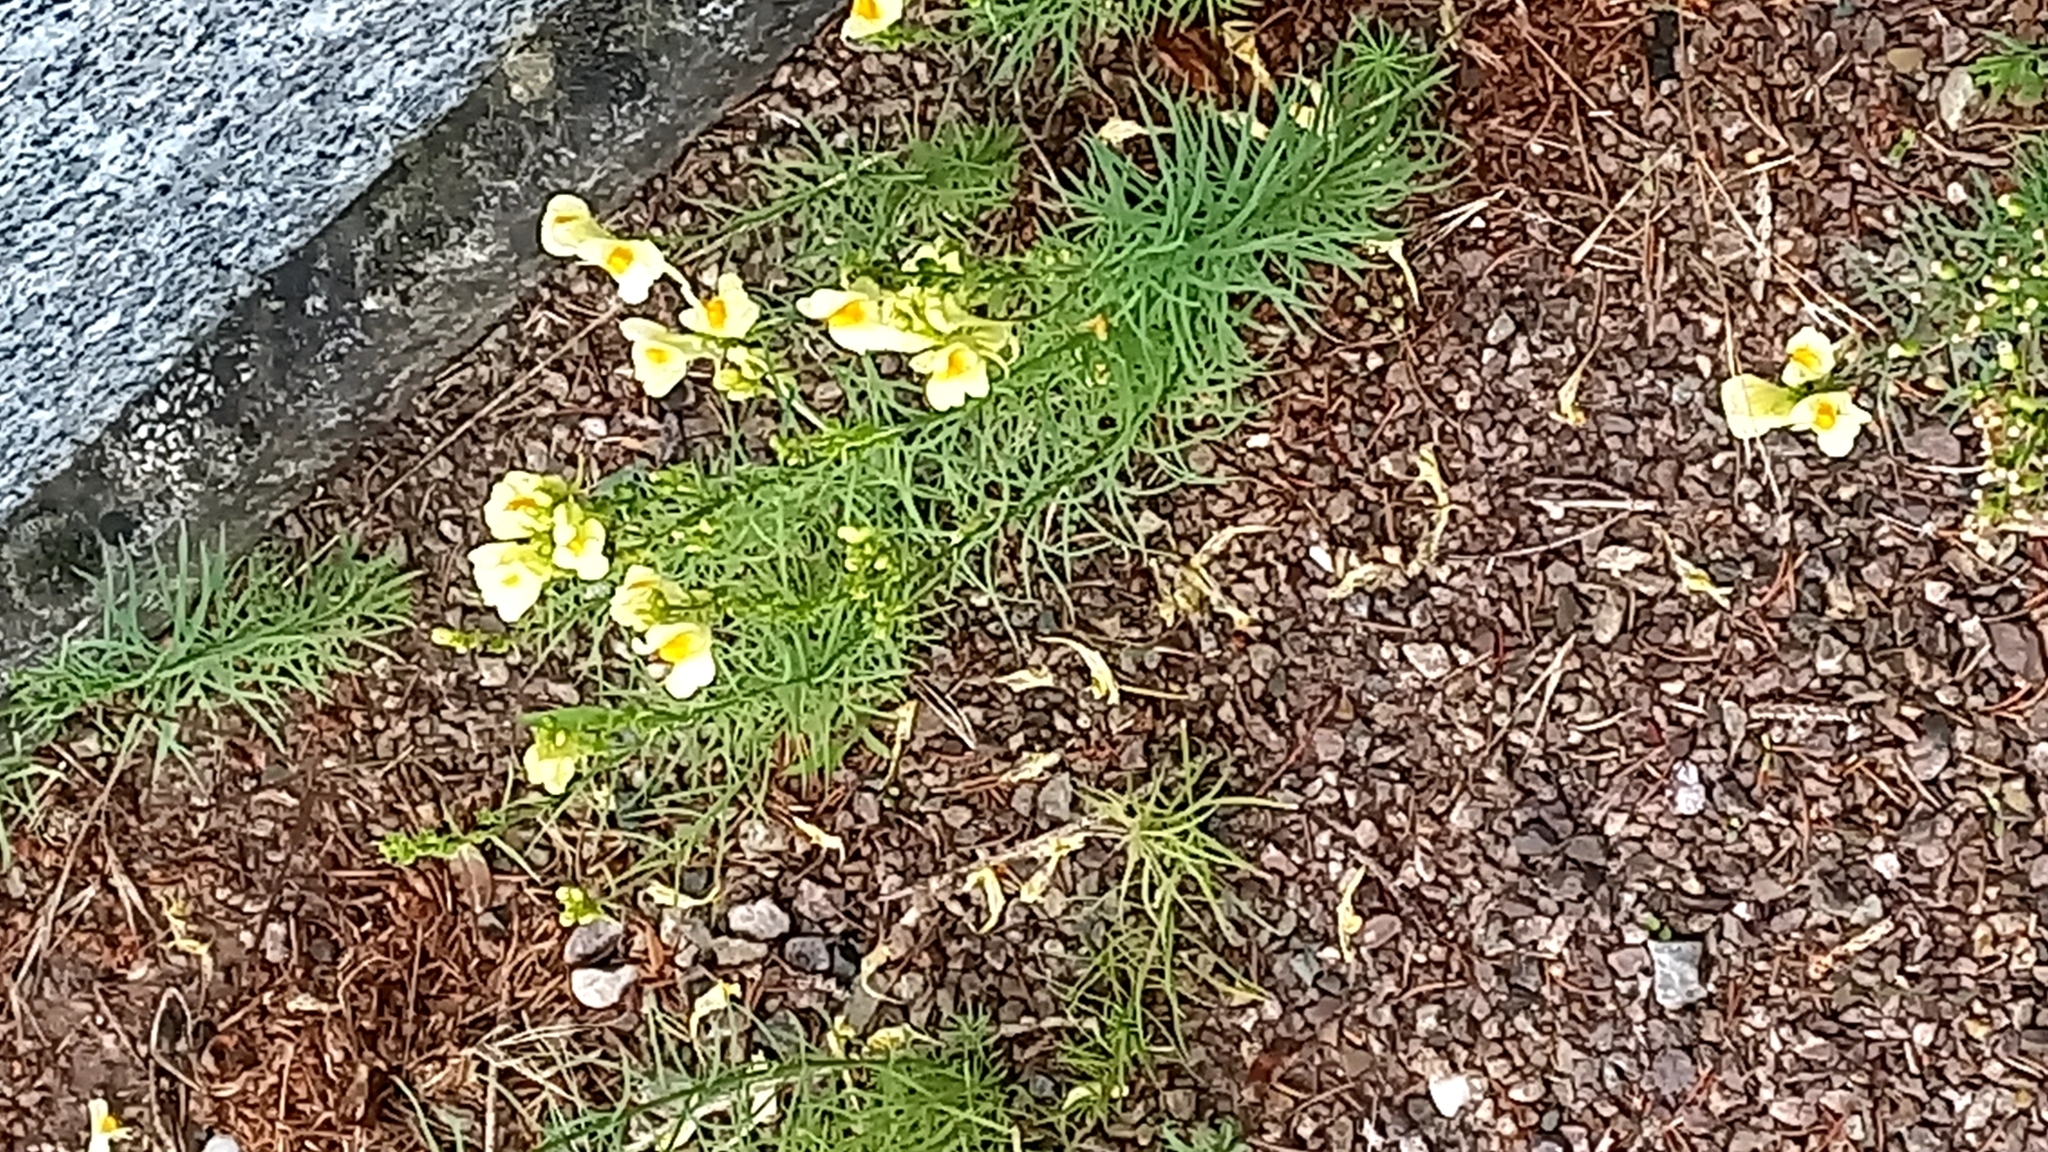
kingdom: Plantae
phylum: Tracheophyta
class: Magnoliopsida
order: Lamiales
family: Plantaginaceae
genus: Linaria
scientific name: Linaria vulgaris
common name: Butter and eggs
